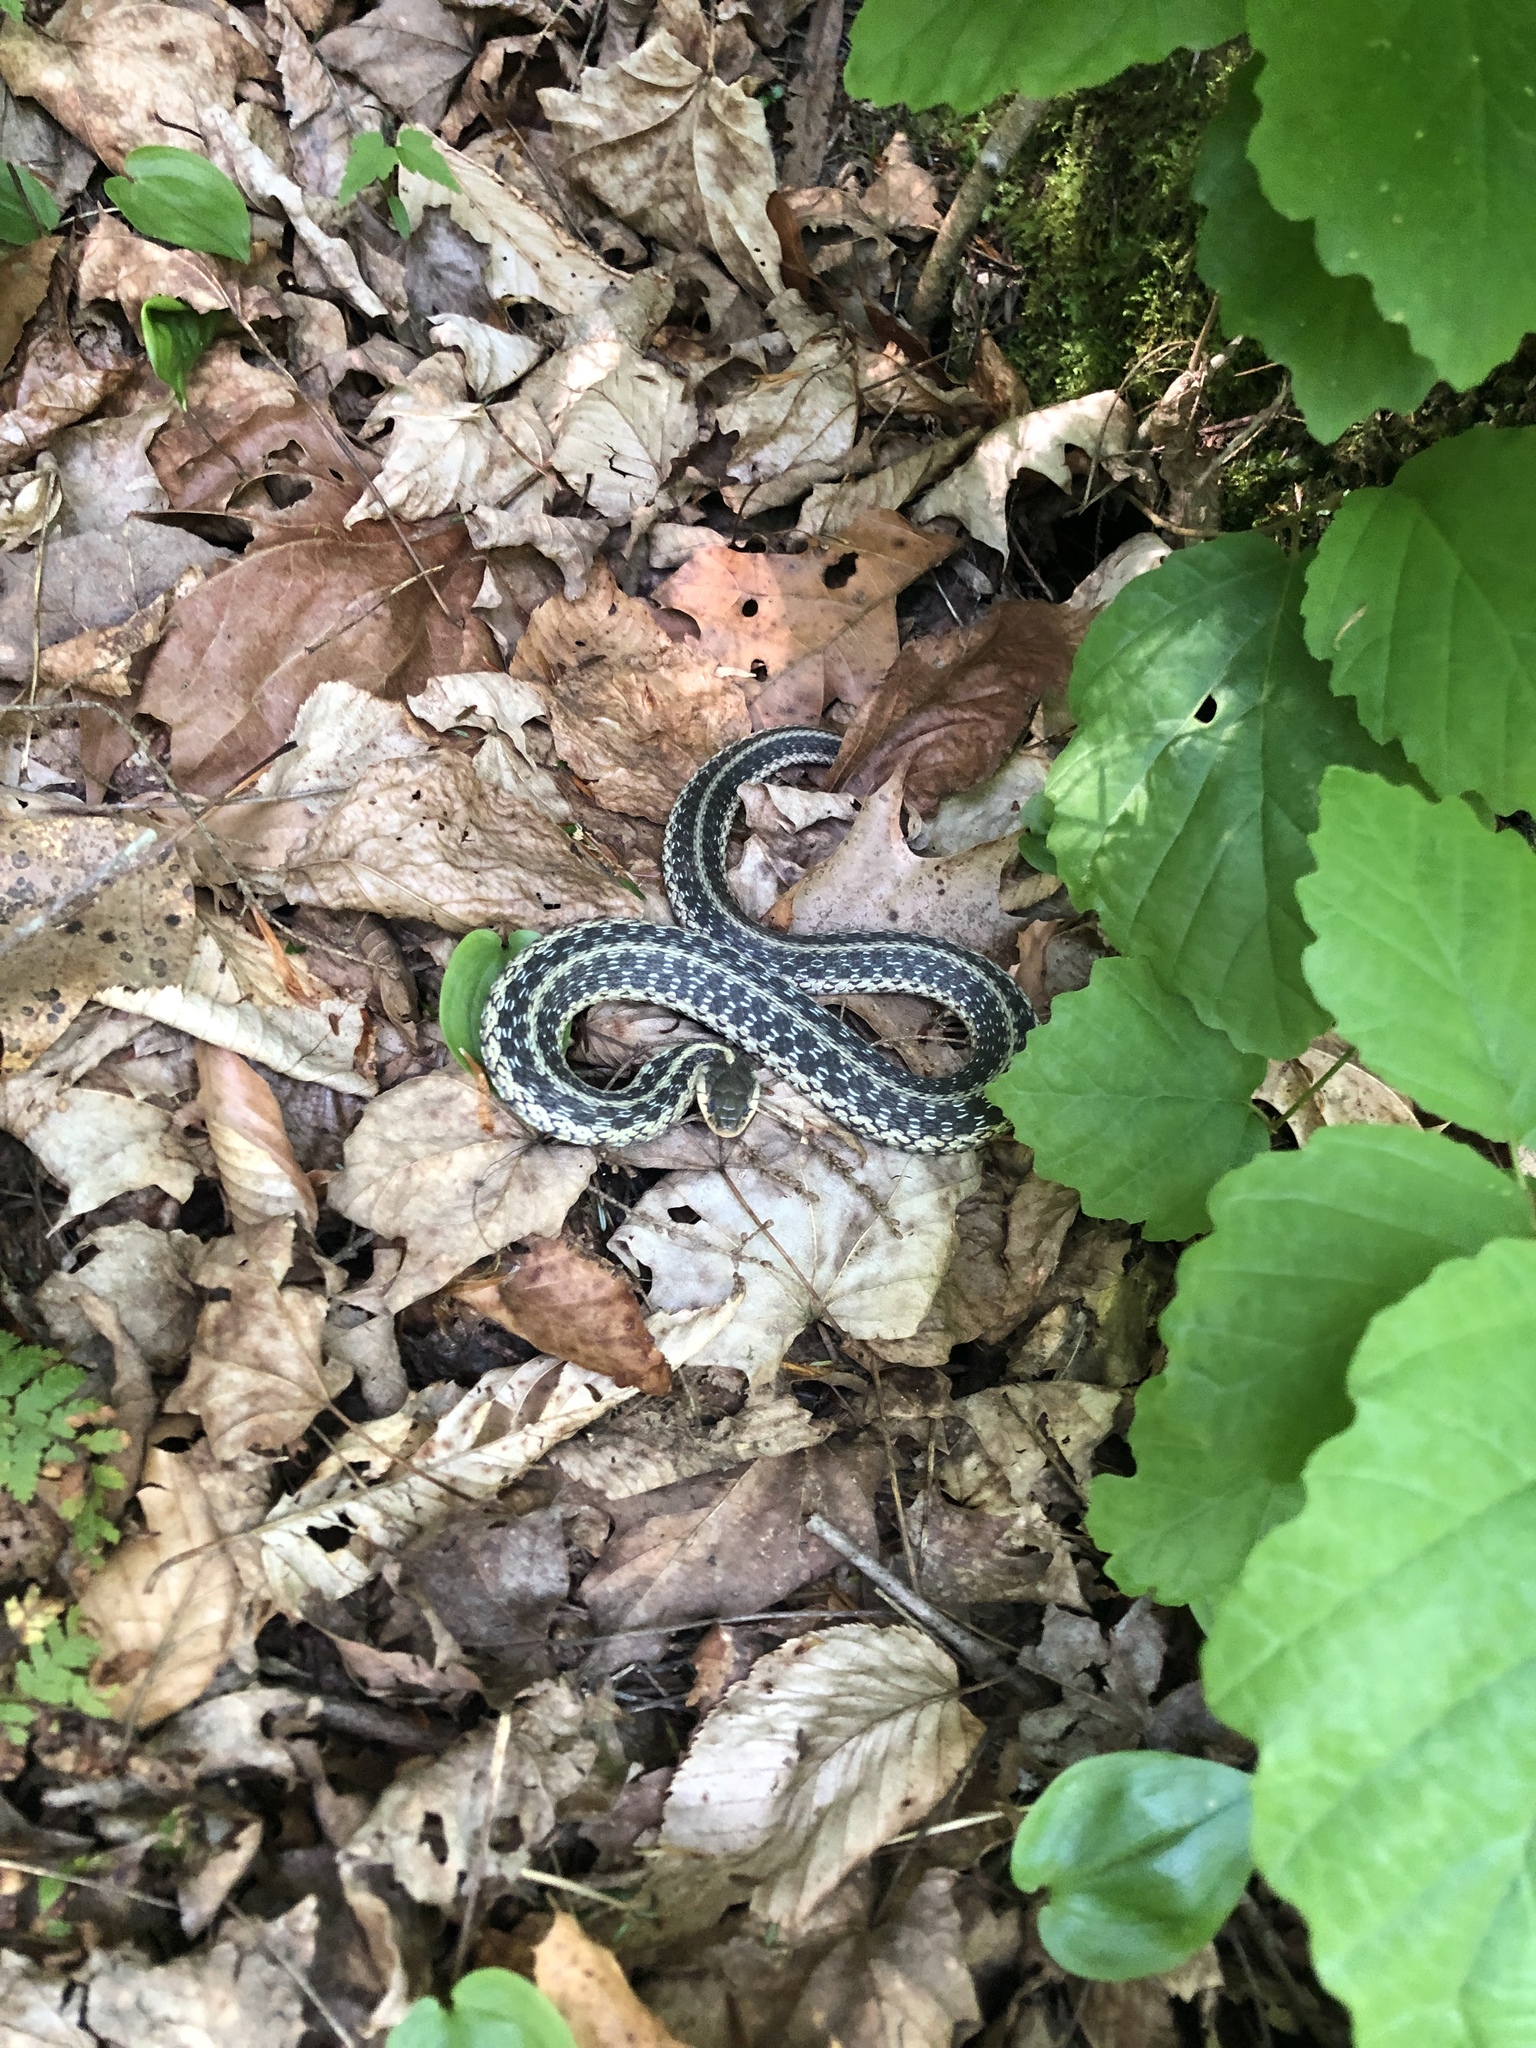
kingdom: Animalia
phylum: Chordata
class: Squamata
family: Colubridae
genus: Thamnophis
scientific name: Thamnophis sirtalis
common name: Common garter snake
